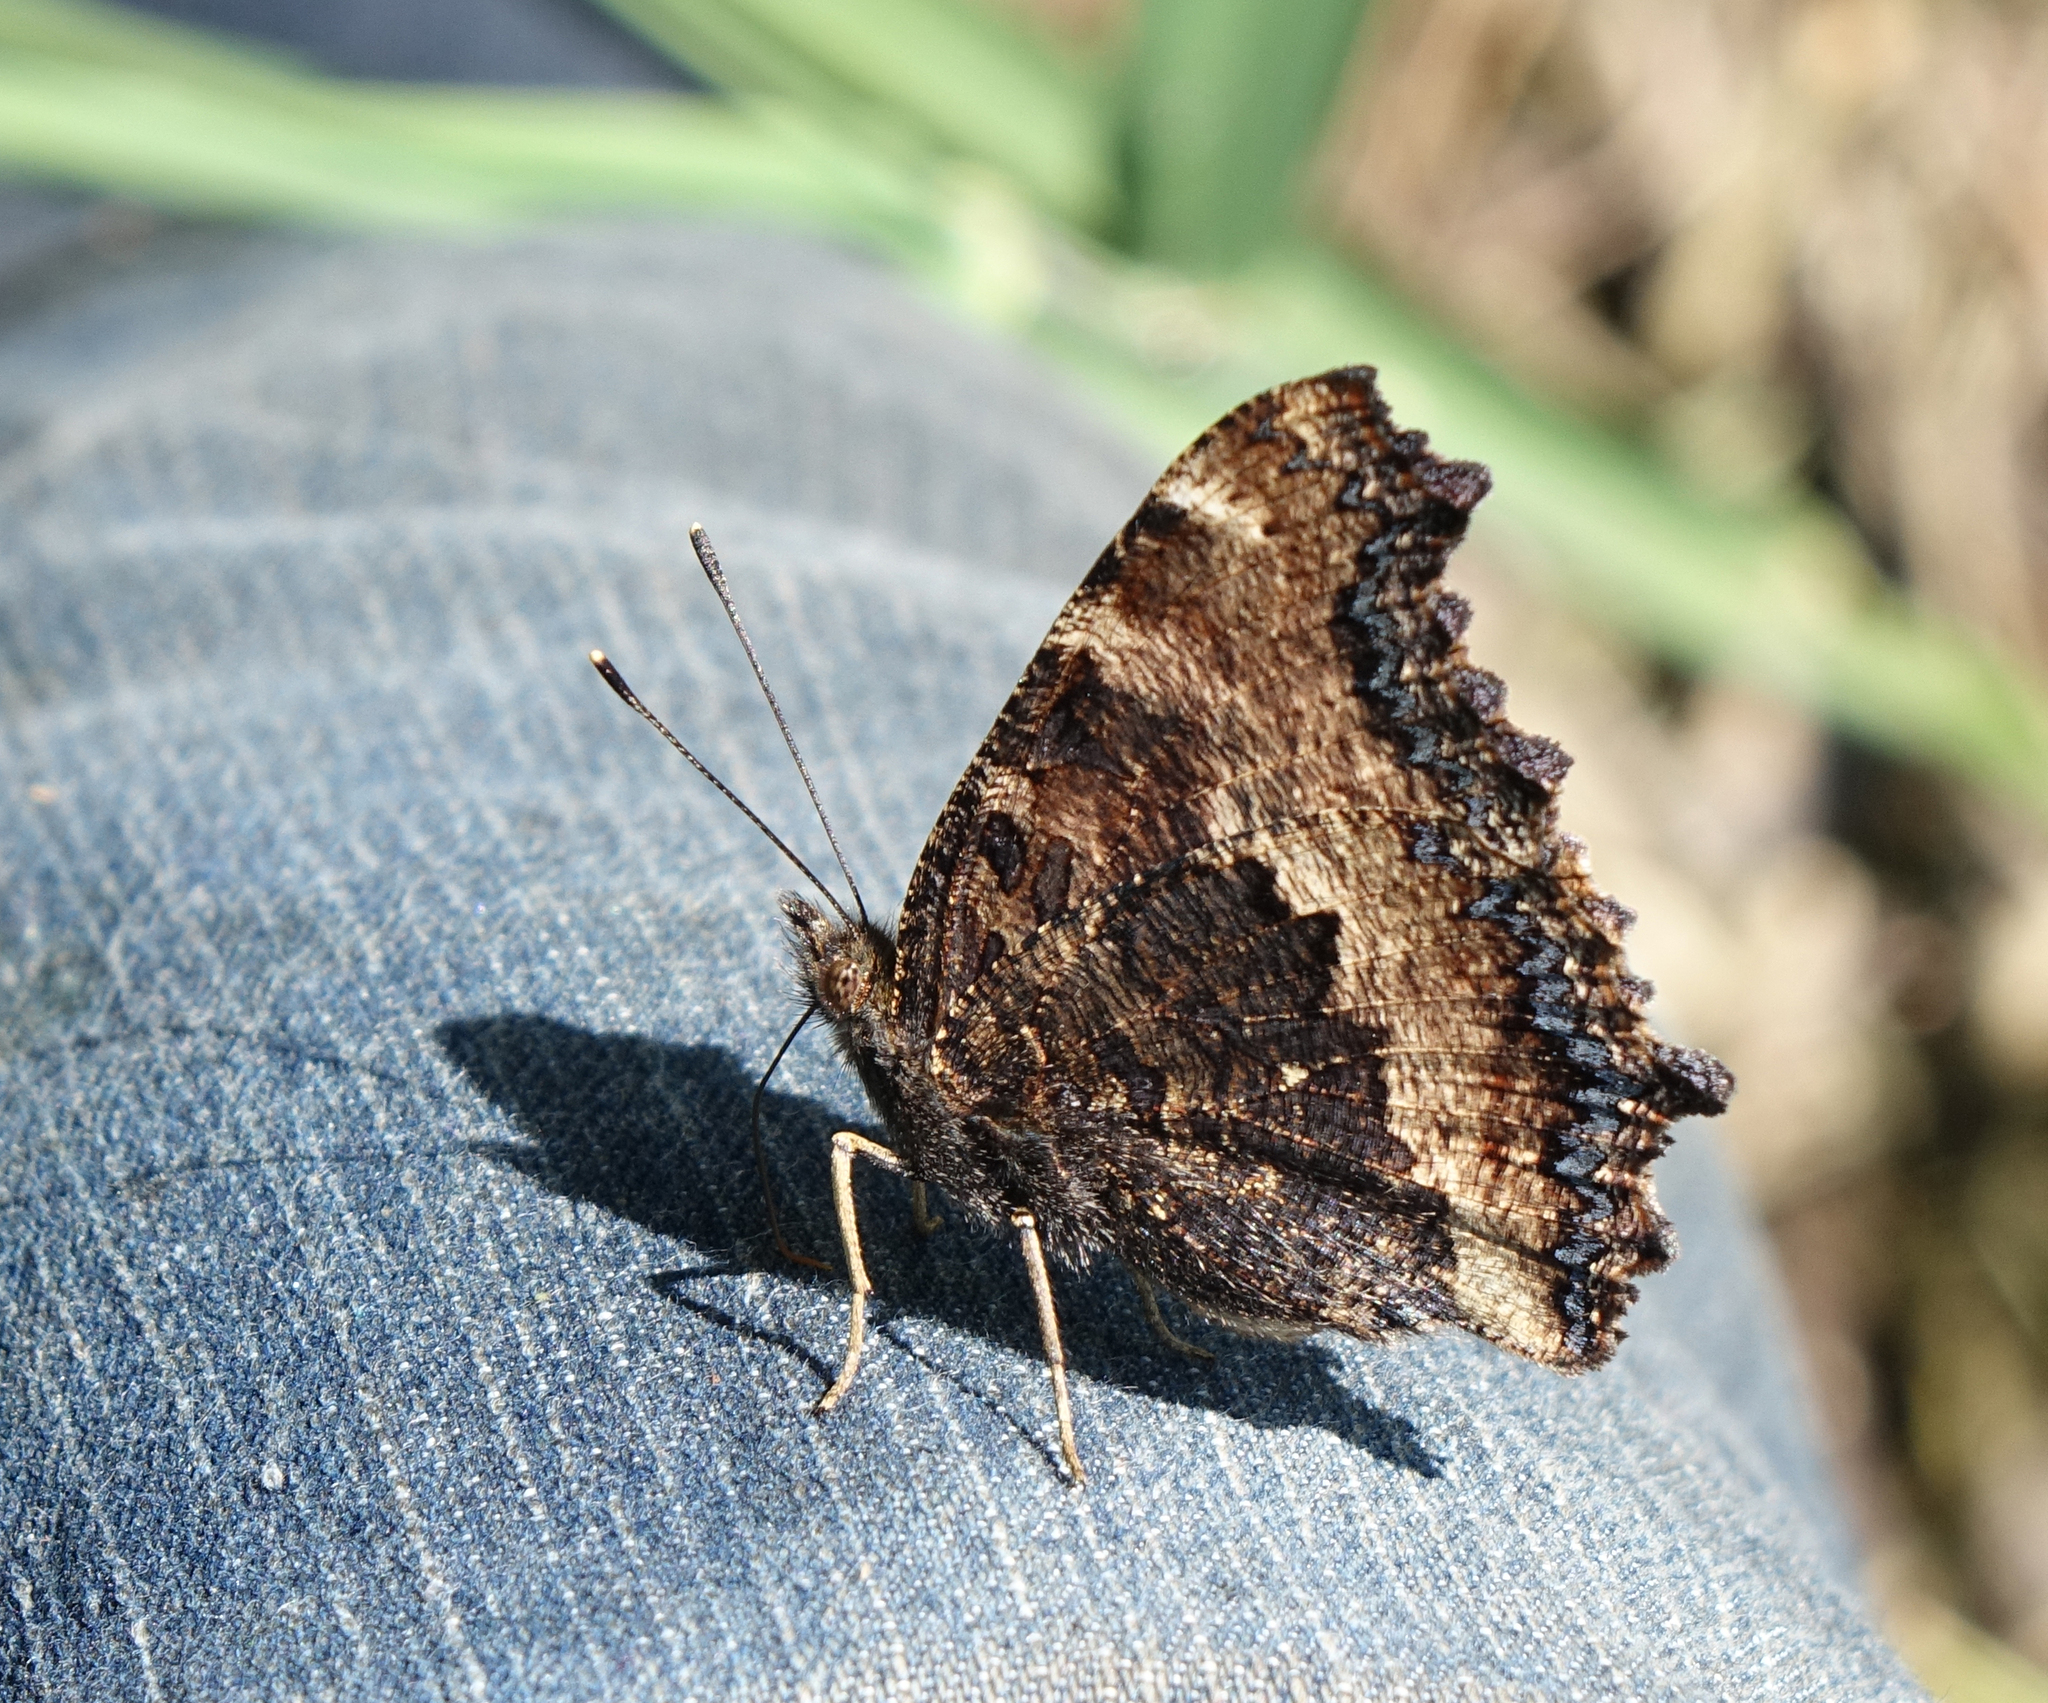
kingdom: Animalia
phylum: Arthropoda
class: Insecta
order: Lepidoptera
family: Nymphalidae
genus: Nymphalis
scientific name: Nymphalis xanthomelas
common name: Scarce tortoiseshell
